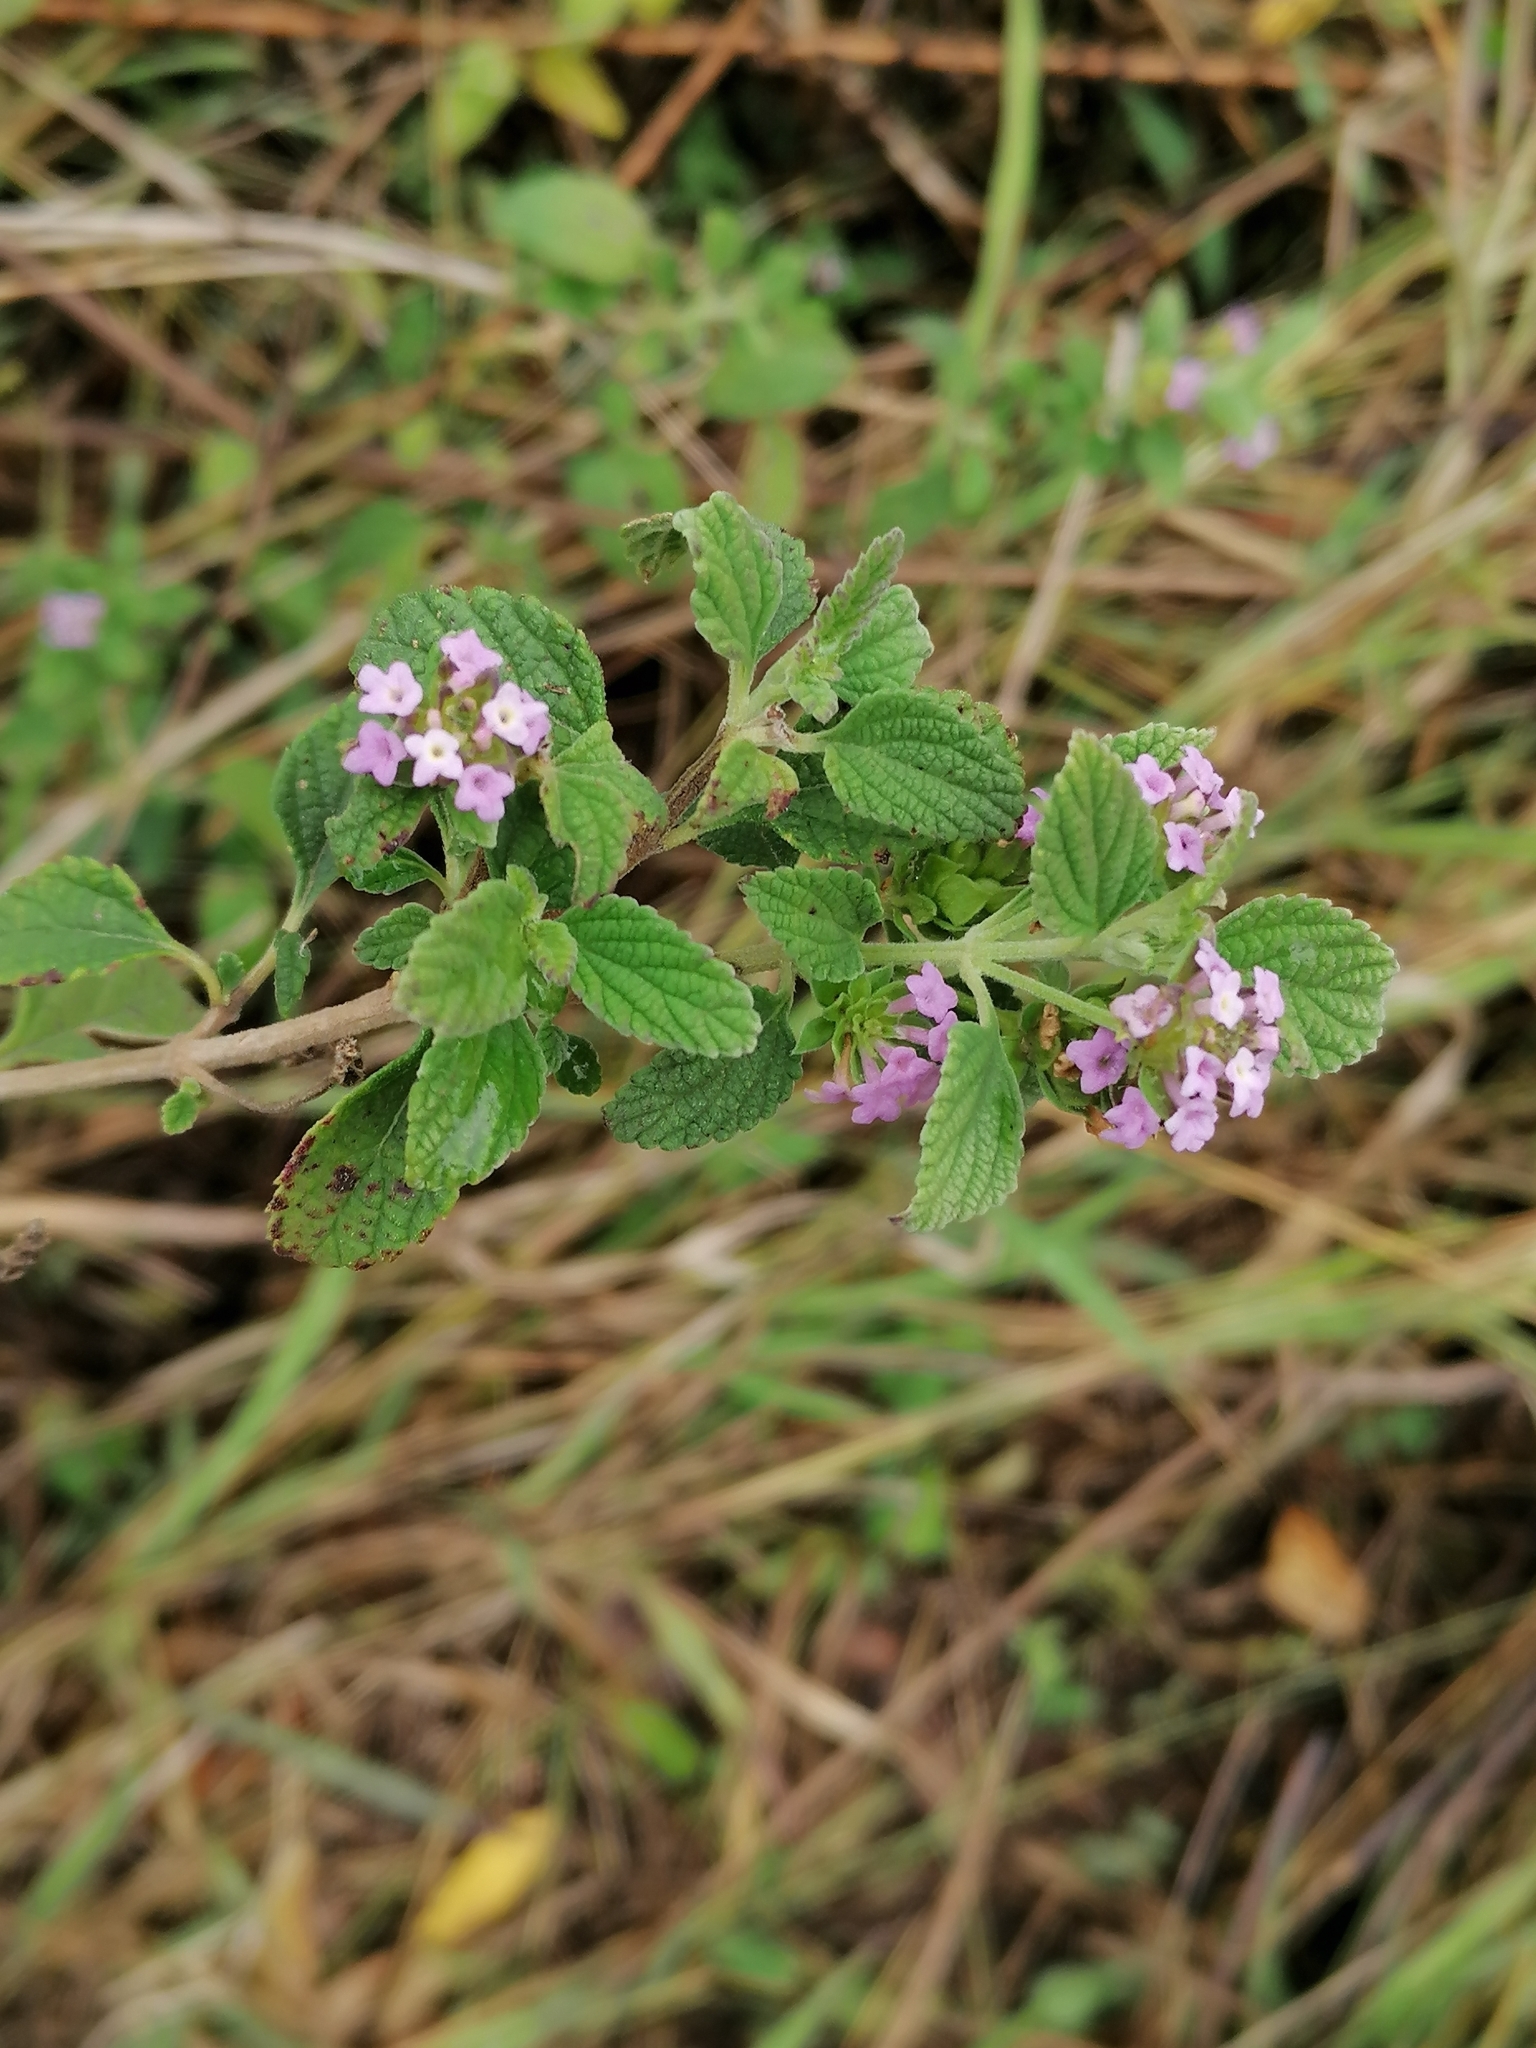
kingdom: Plantae
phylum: Tracheophyta
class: Magnoliopsida
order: Lamiales
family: Verbenaceae
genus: Lantana
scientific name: Lantana rugosa
